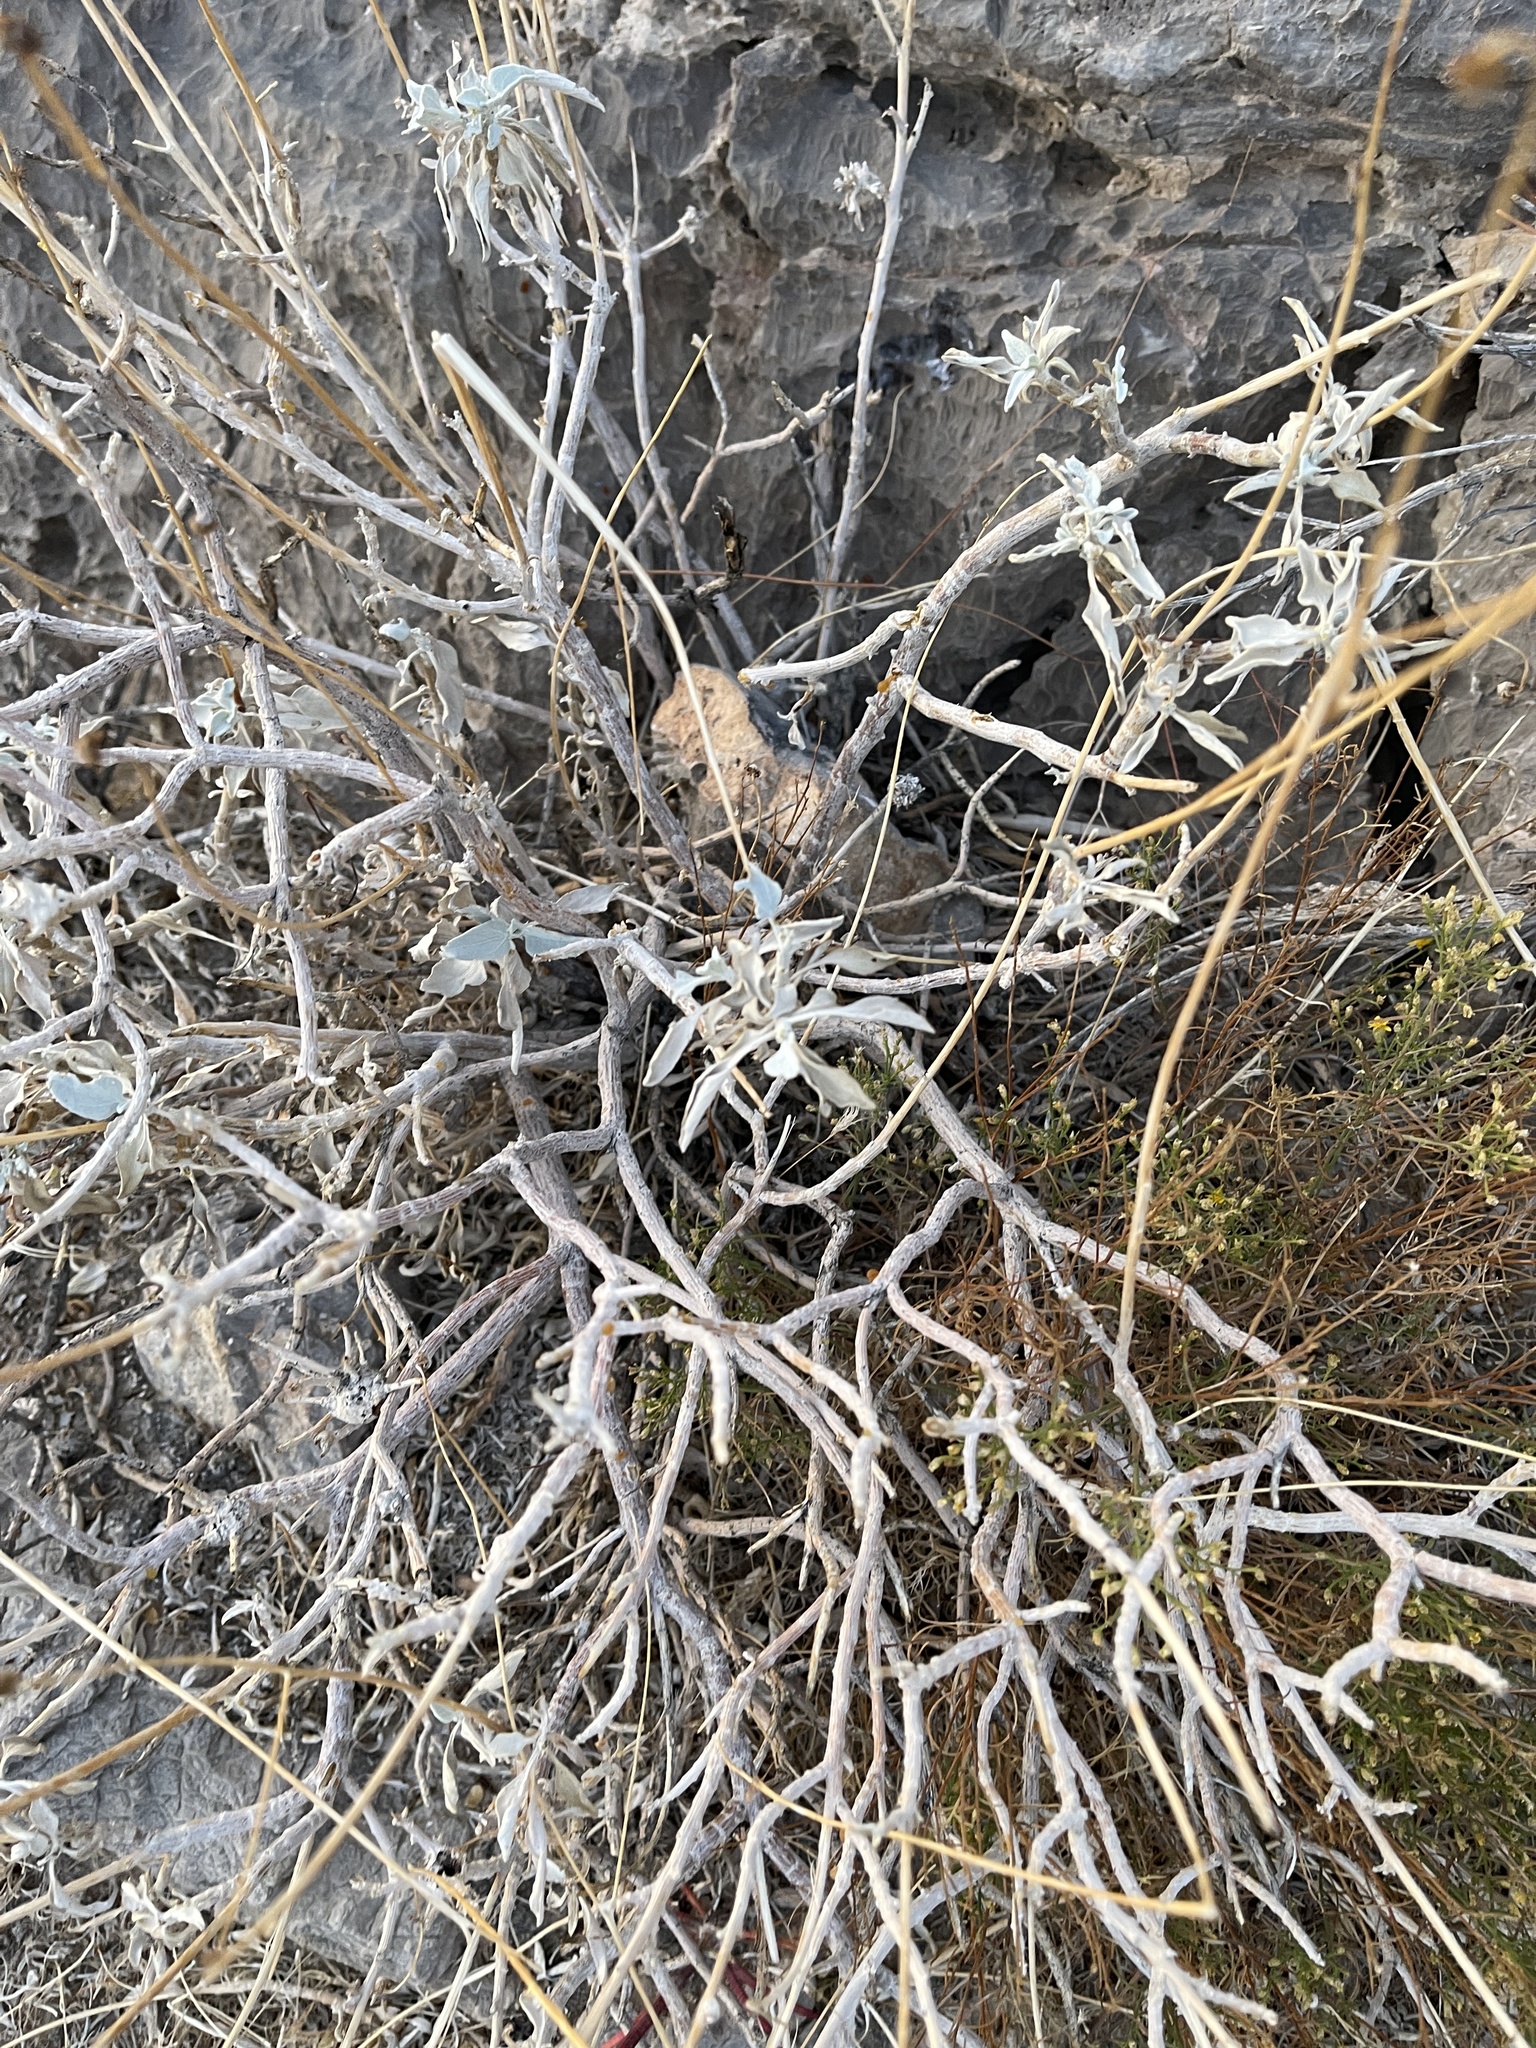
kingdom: Plantae
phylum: Tracheophyta
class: Magnoliopsida
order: Asterales
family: Asteraceae
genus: Encelia
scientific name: Encelia farinosa
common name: Brittlebush
